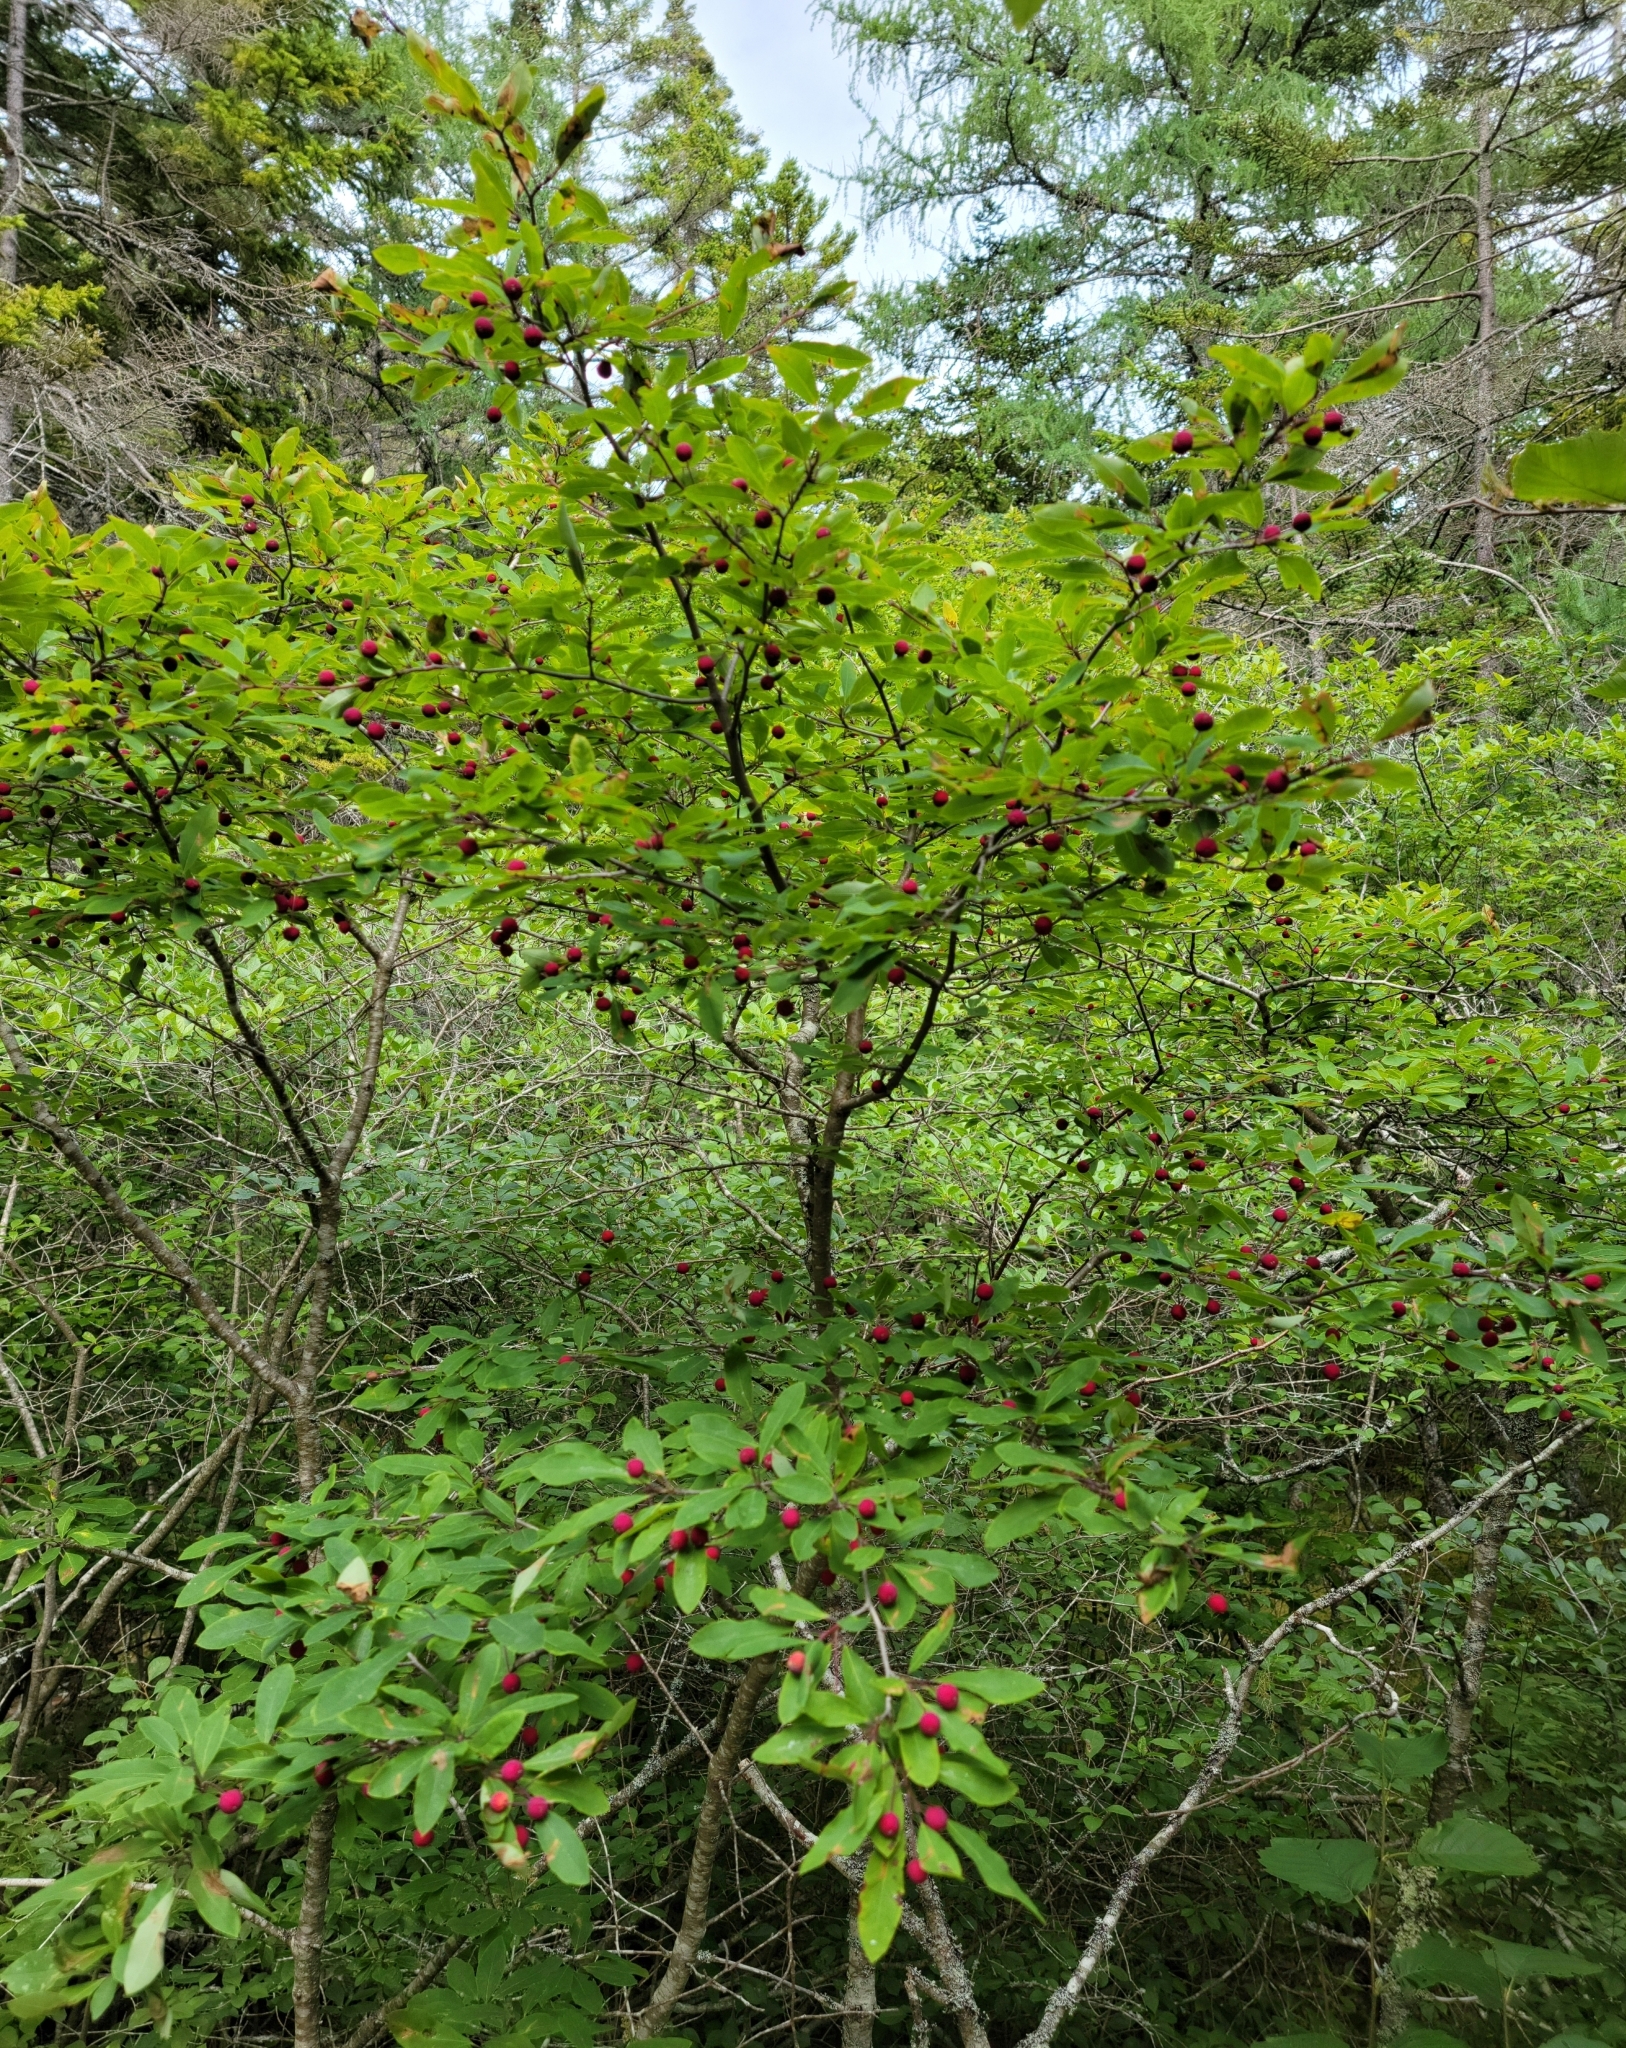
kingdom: Plantae
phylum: Tracheophyta
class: Magnoliopsida
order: Aquifoliales
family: Aquifoliaceae
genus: Ilex
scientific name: Ilex mucronata
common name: Catberry
